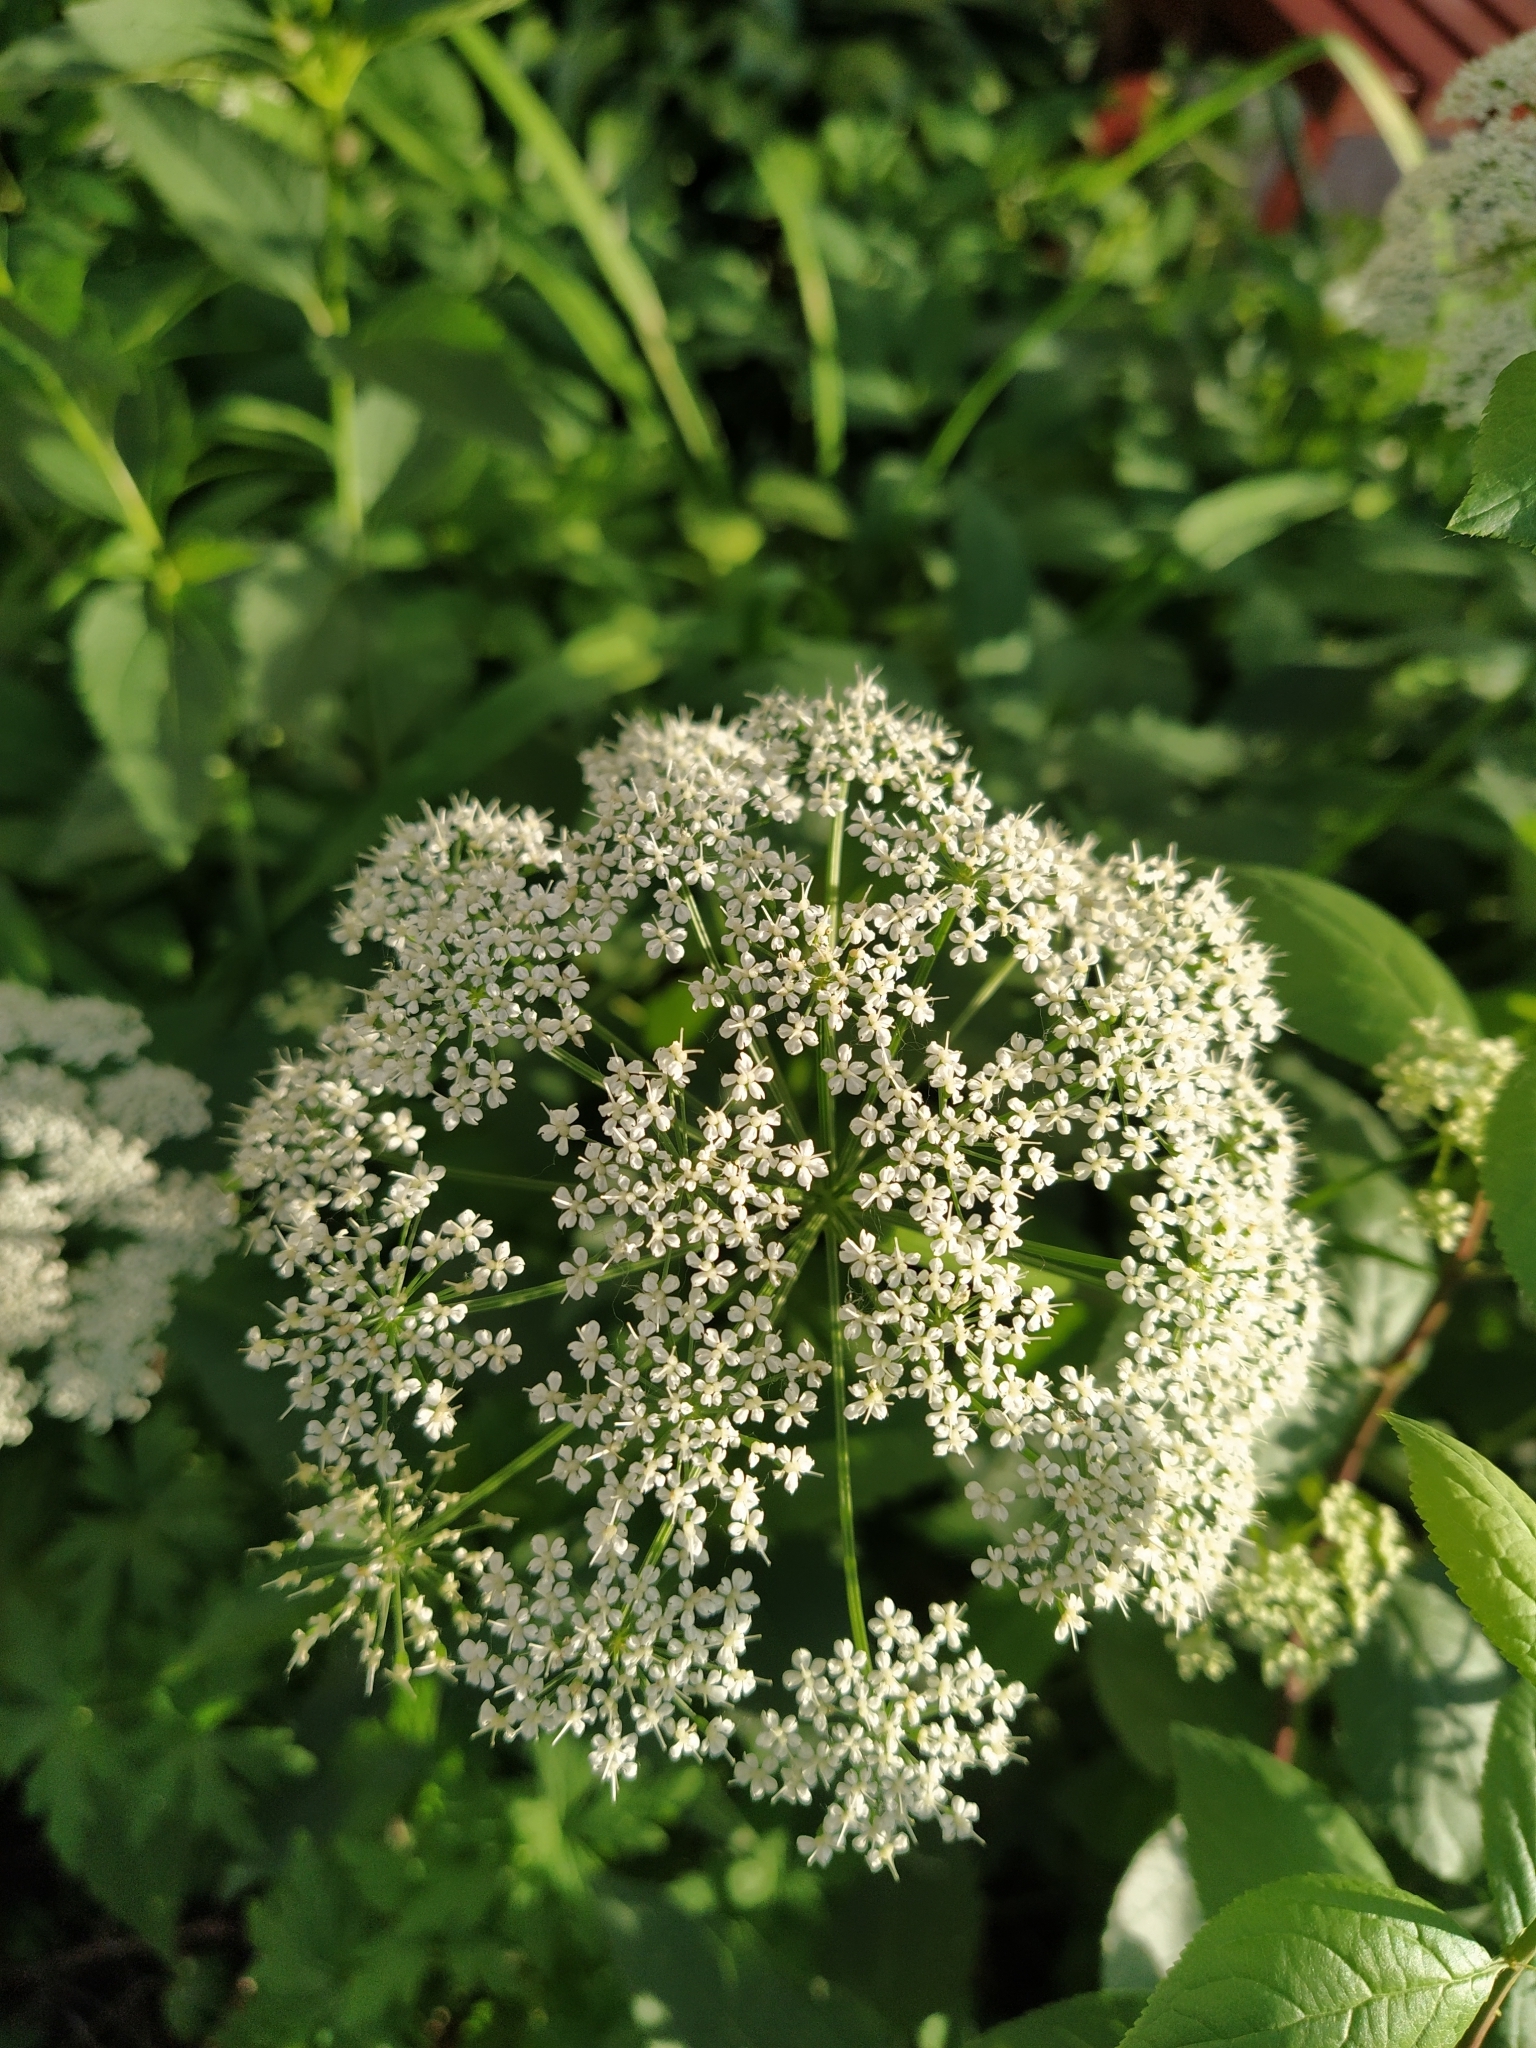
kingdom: Plantae
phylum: Tracheophyta
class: Magnoliopsida
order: Apiales
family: Apiaceae
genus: Aegopodium
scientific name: Aegopodium podagraria
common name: Ground-elder
